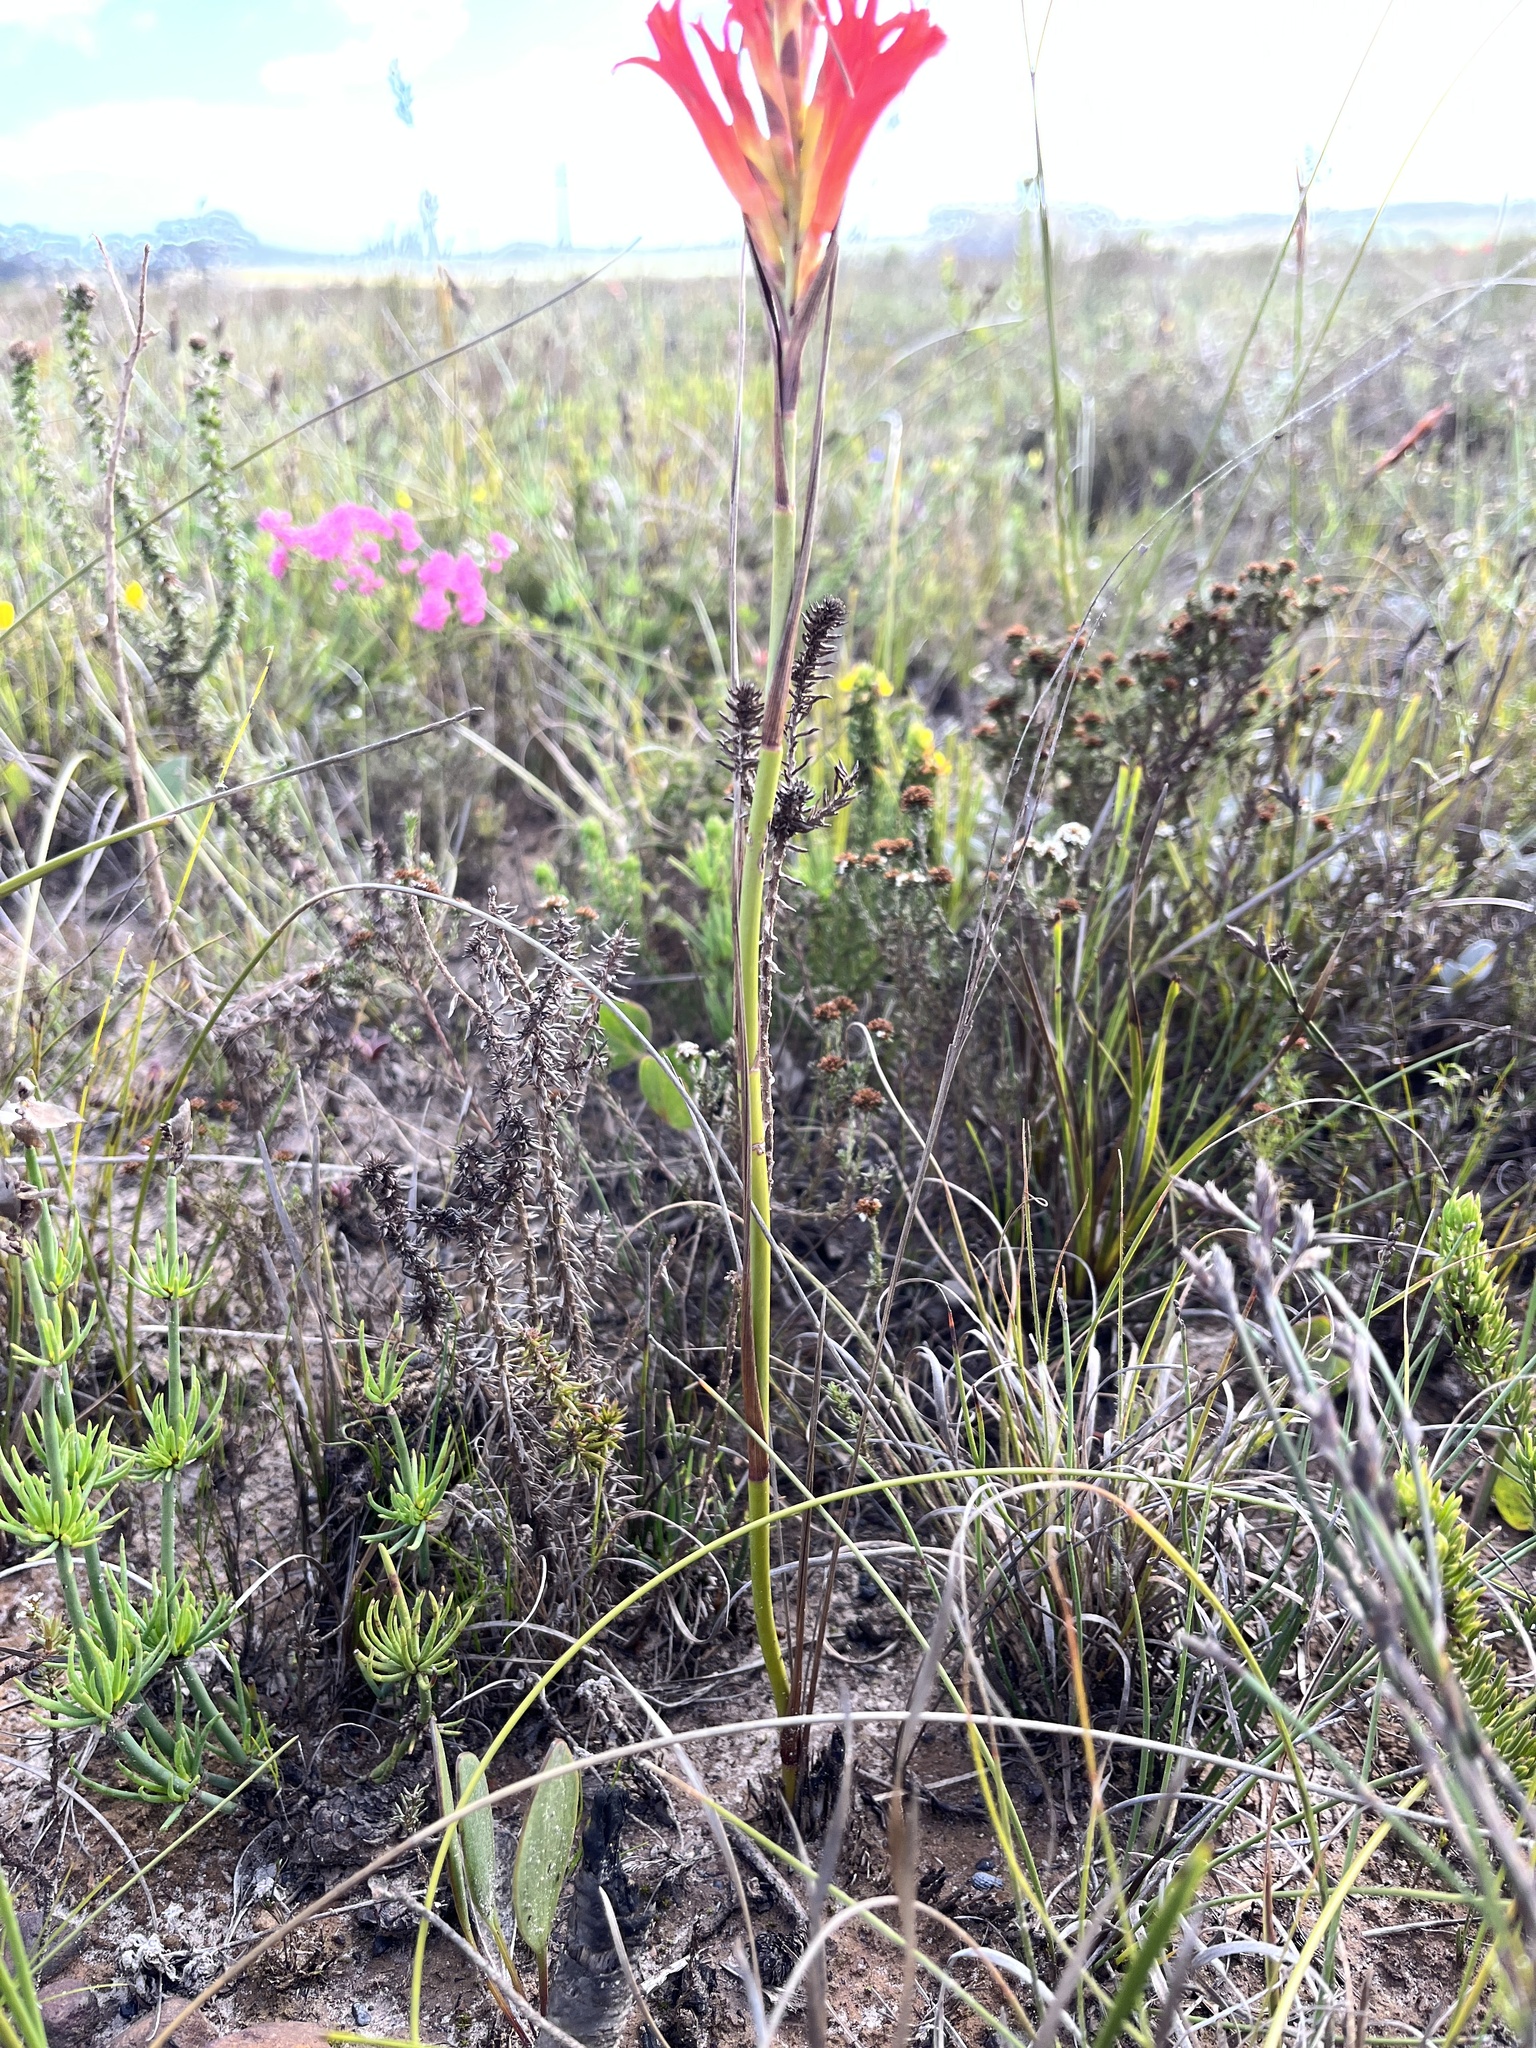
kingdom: Plantae
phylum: Tracheophyta
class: Liliopsida
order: Asparagales
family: Iridaceae
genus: Tritoniopsis
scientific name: Tritoniopsis triticea
